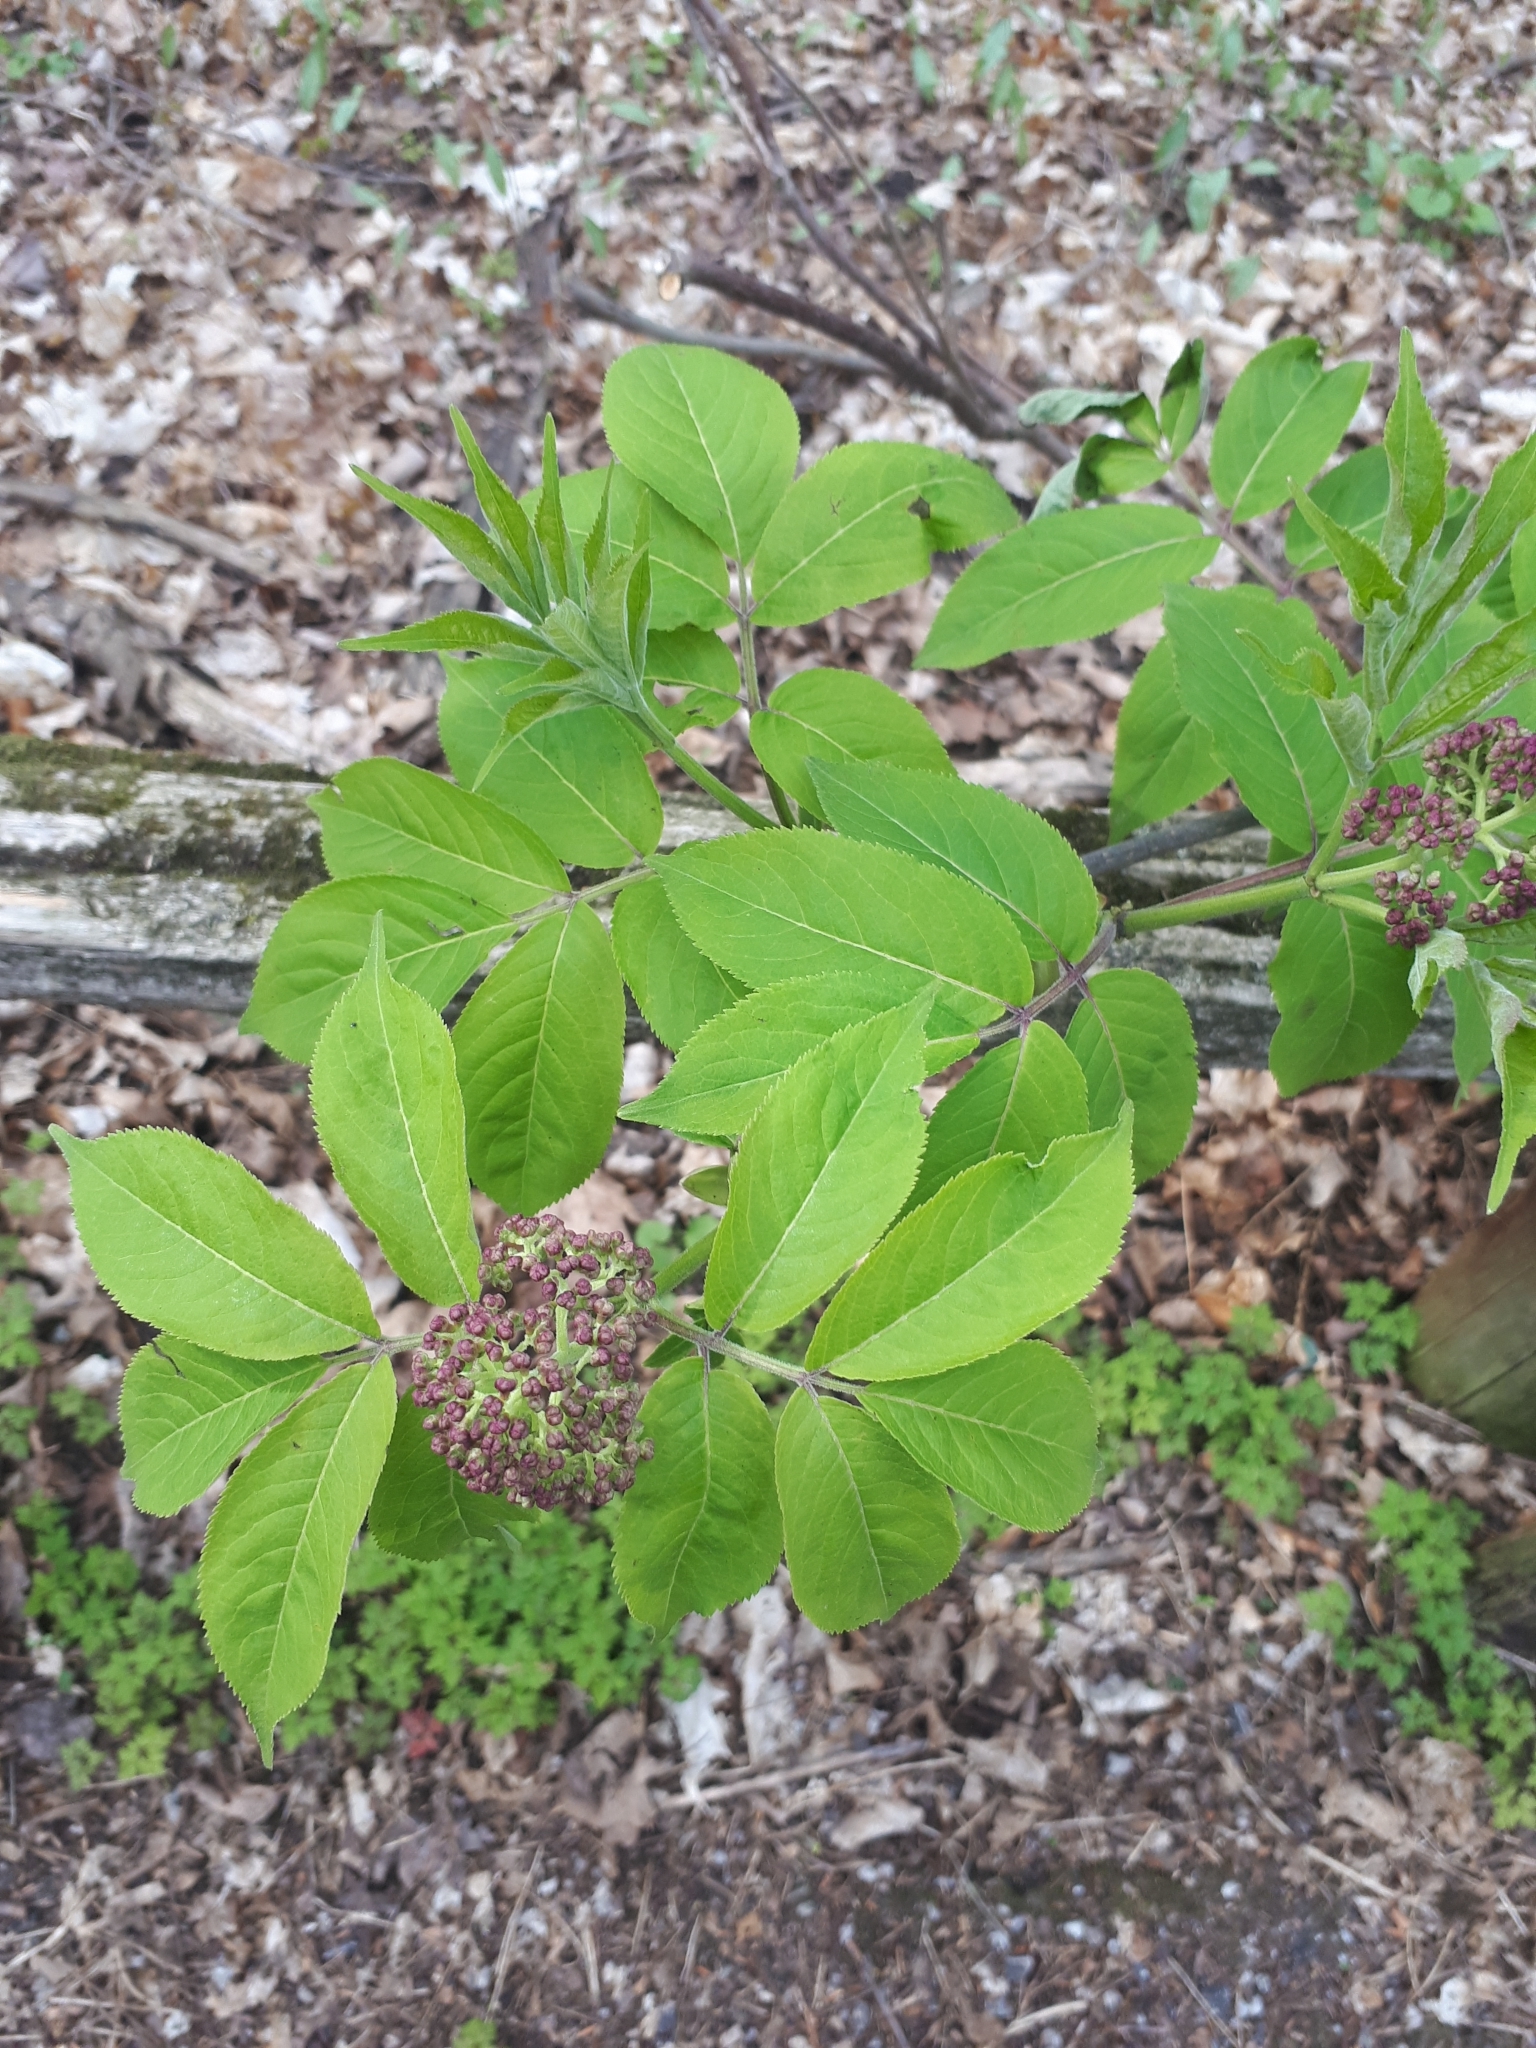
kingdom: Plantae
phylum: Tracheophyta
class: Magnoliopsida
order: Dipsacales
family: Viburnaceae
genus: Sambucus
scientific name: Sambucus racemosa
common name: Red-berried elder
